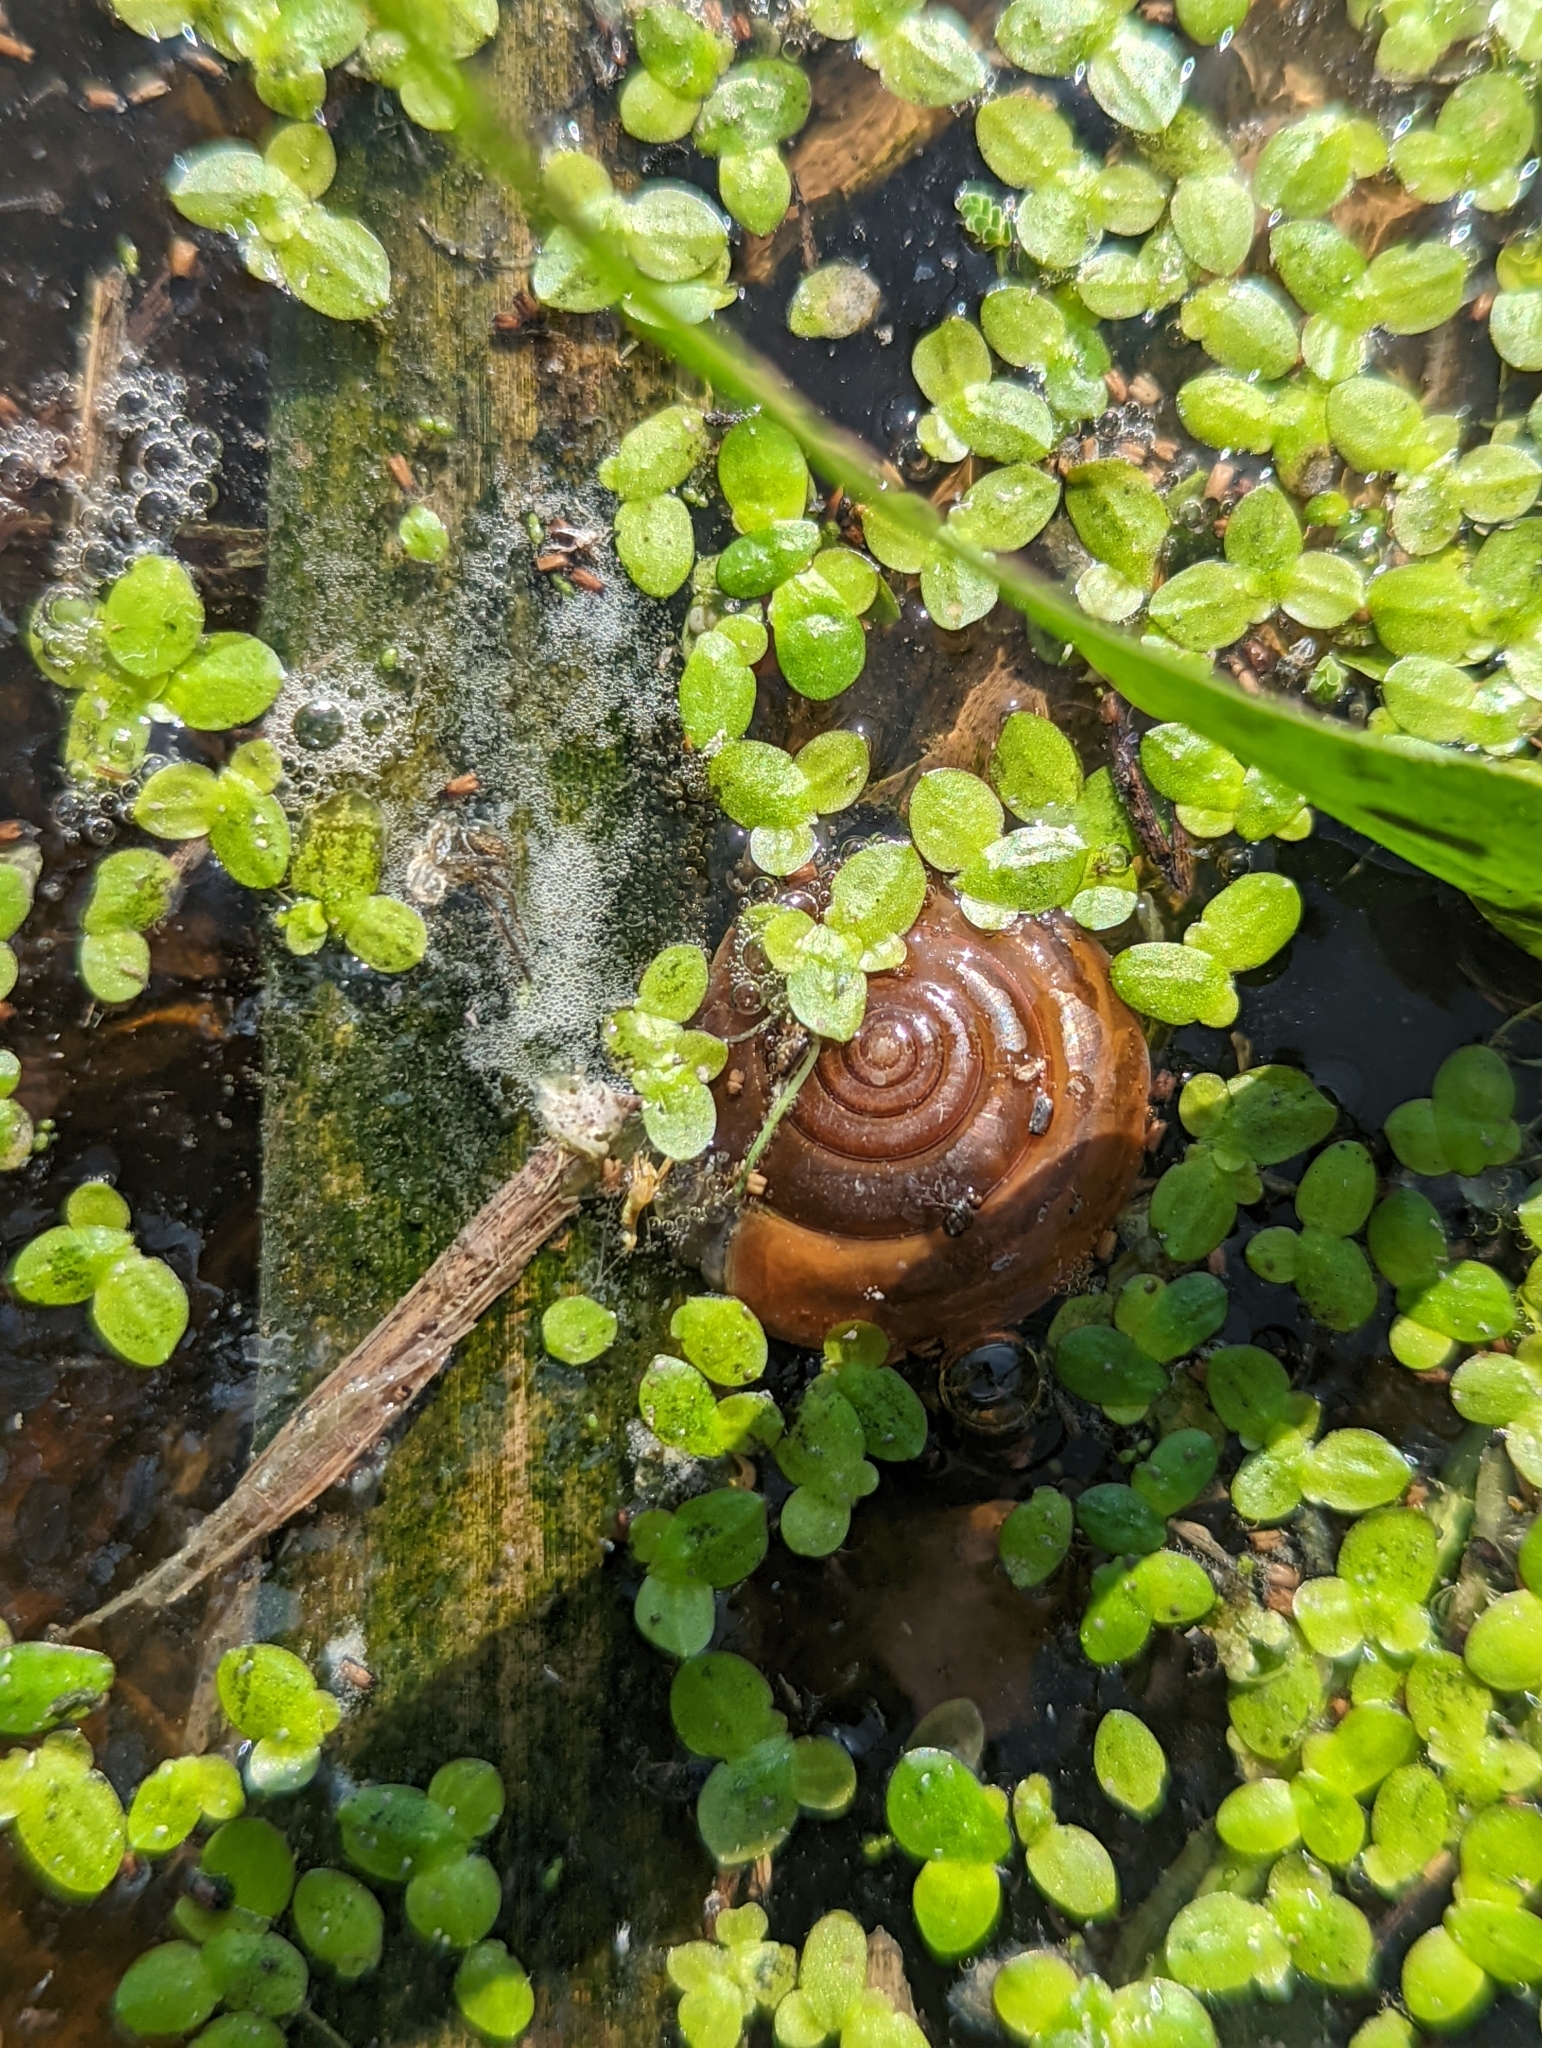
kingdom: Animalia
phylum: Mollusca
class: Gastropoda
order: Stylommatophora
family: Ariophantidae
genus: Sarika
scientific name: Sarika siamensis
